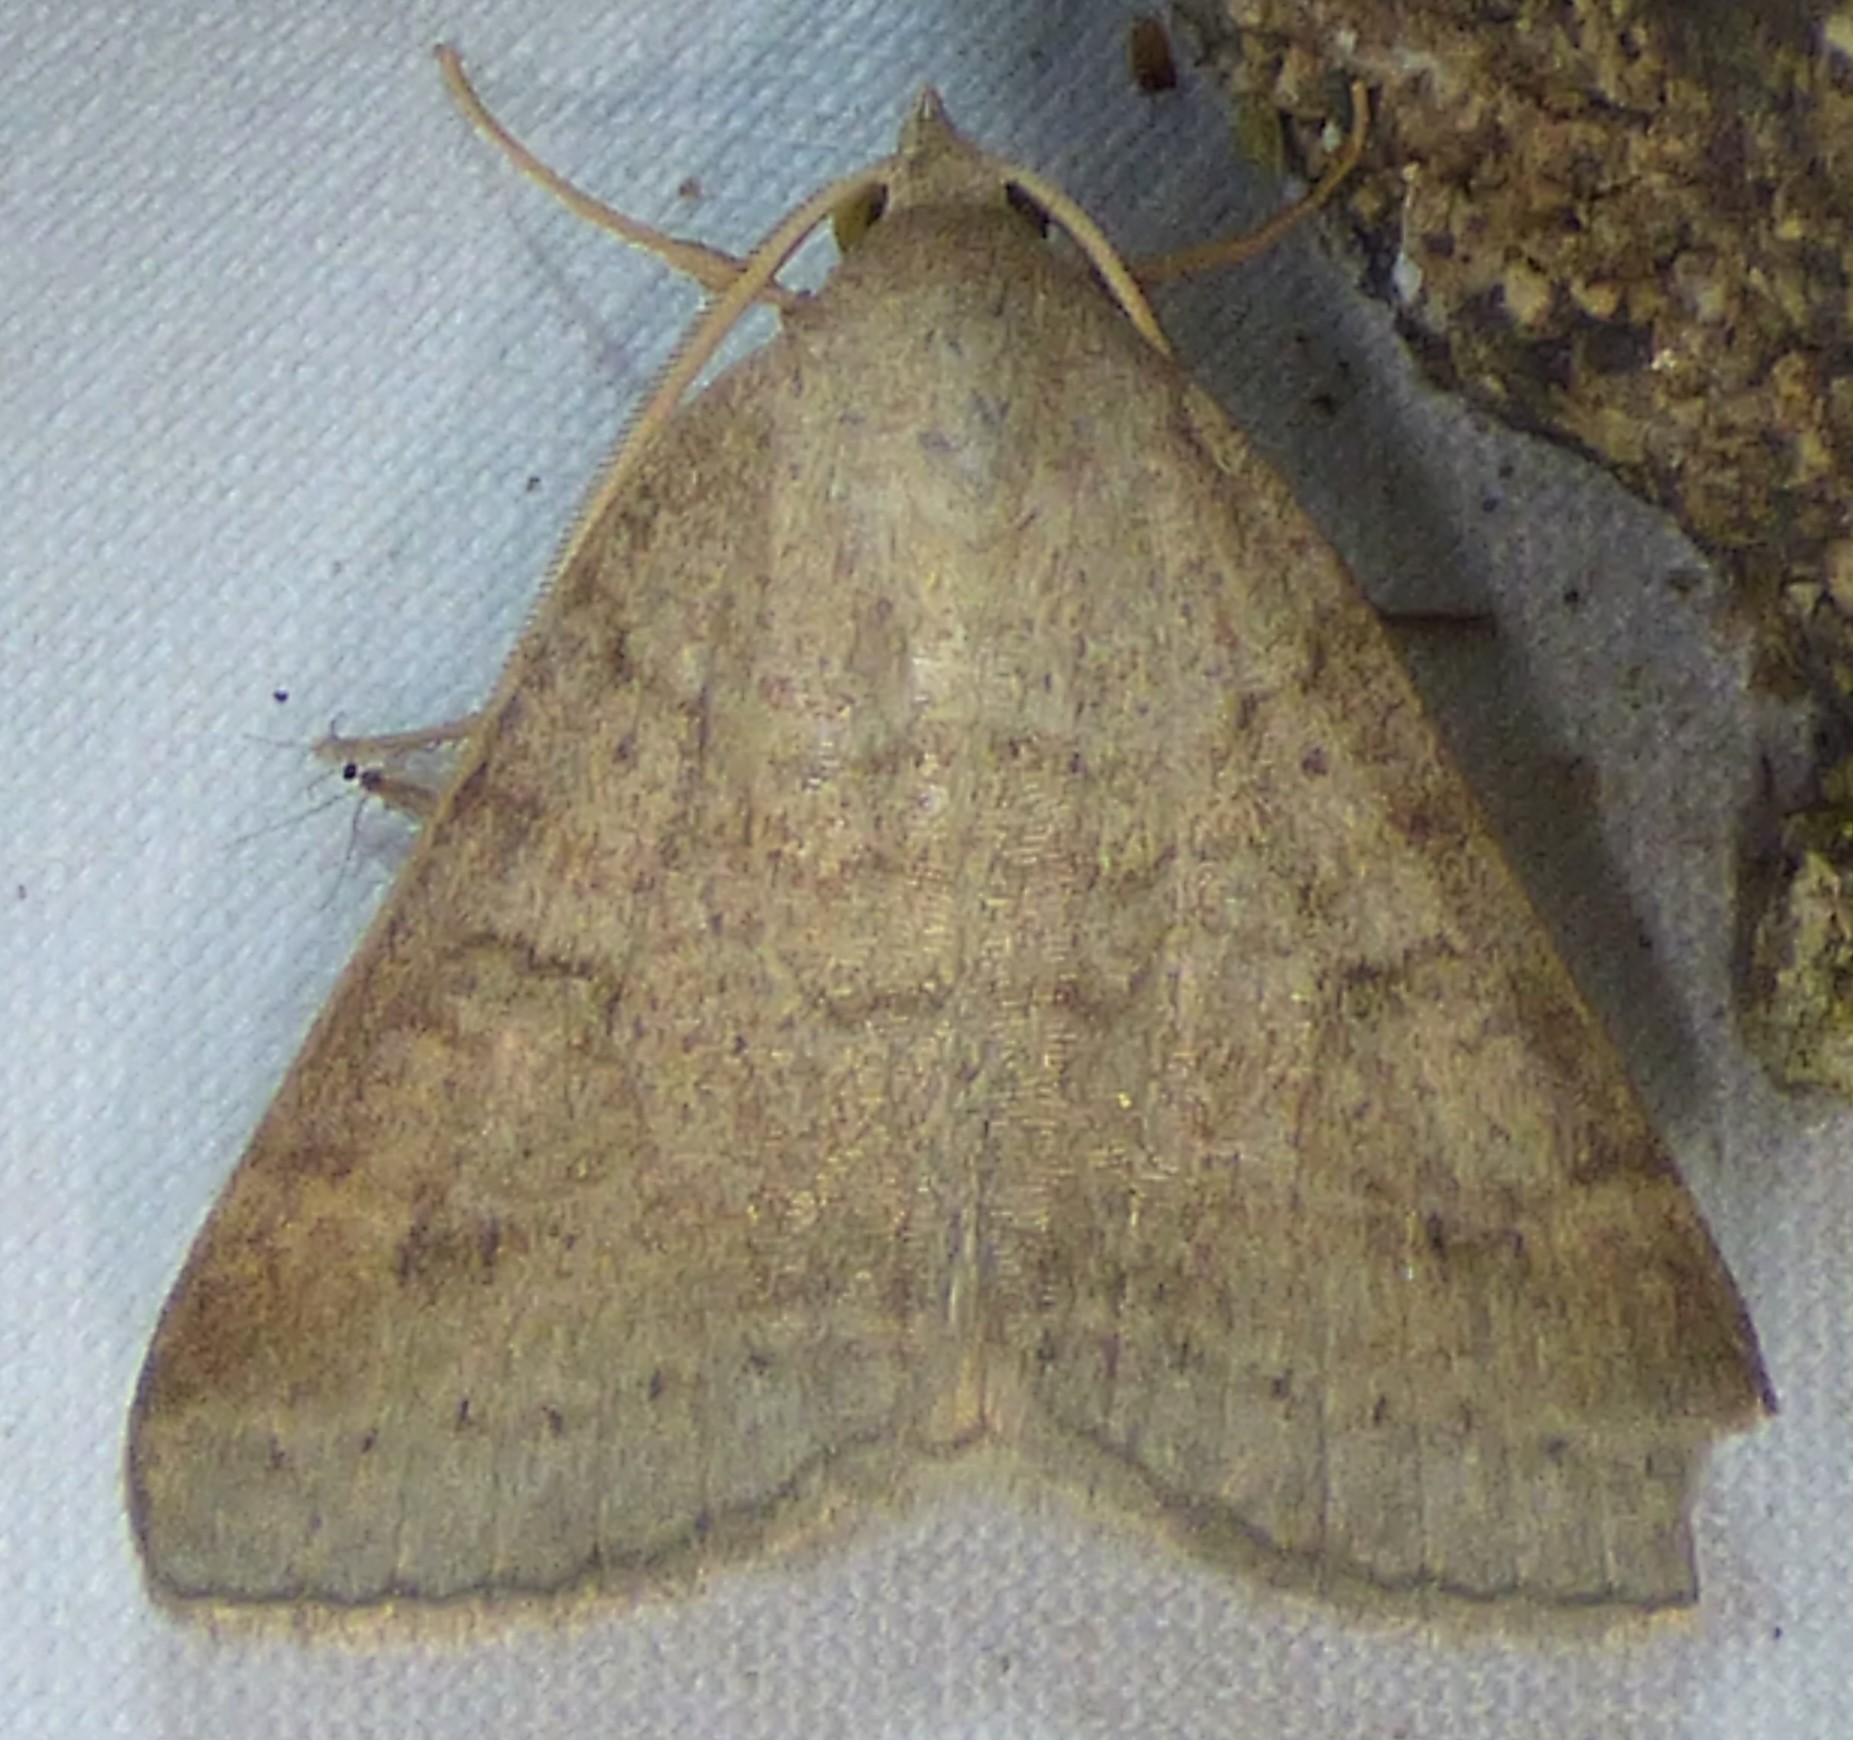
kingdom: Animalia
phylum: Arthropoda
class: Insecta
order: Lepidoptera
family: Erebidae
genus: Caenurgia
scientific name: Caenurgia chloropha
